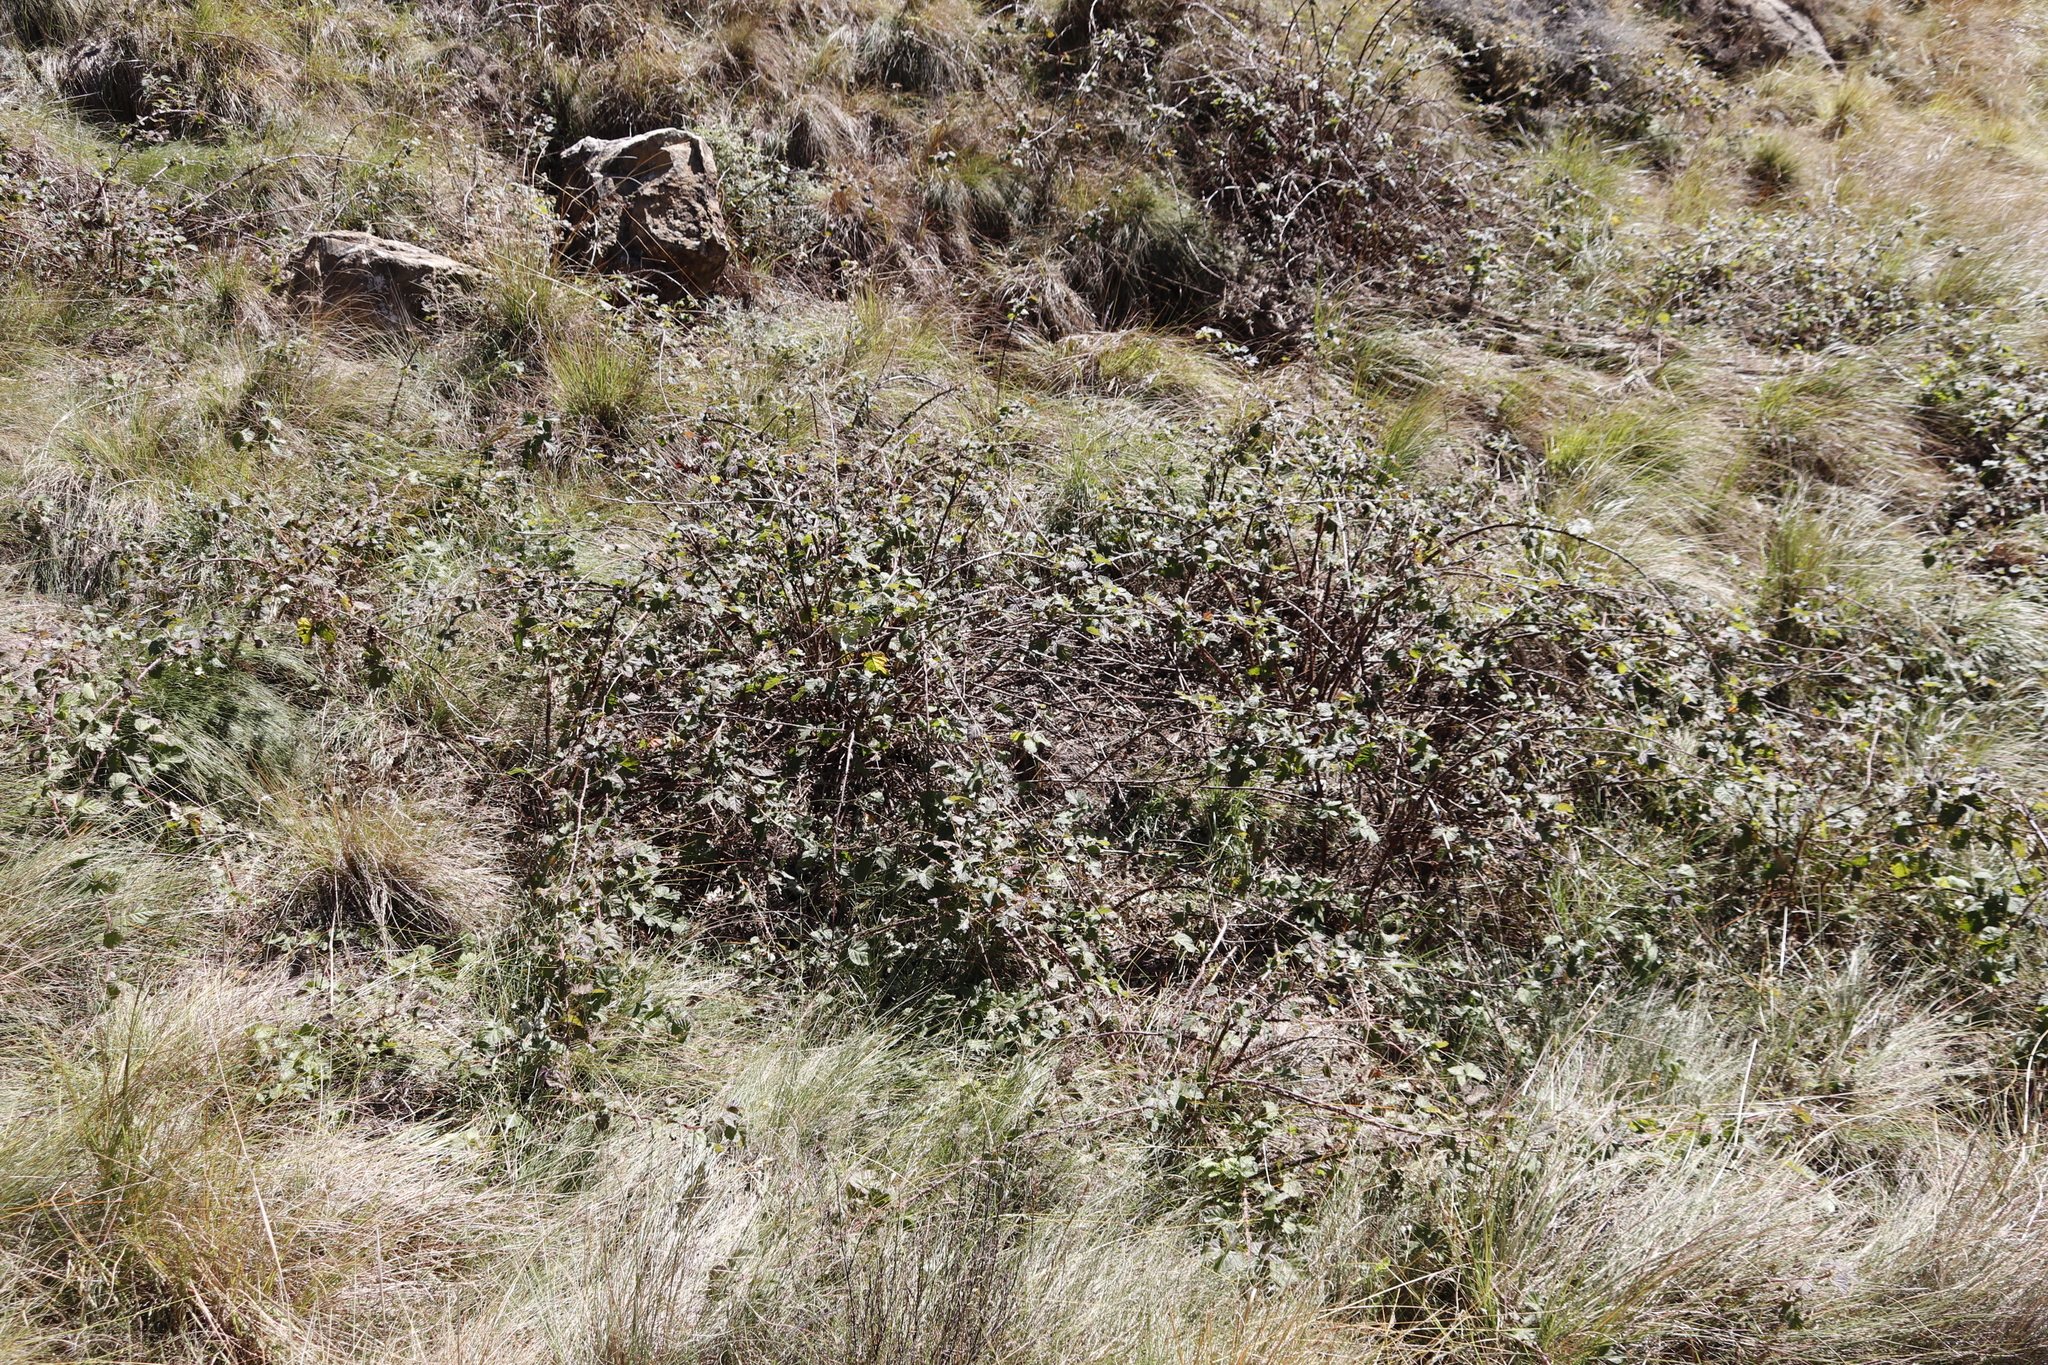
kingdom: Plantae
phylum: Tracheophyta
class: Magnoliopsida
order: Rosales
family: Rosaceae
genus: Rubus
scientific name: Rubus rigidus
